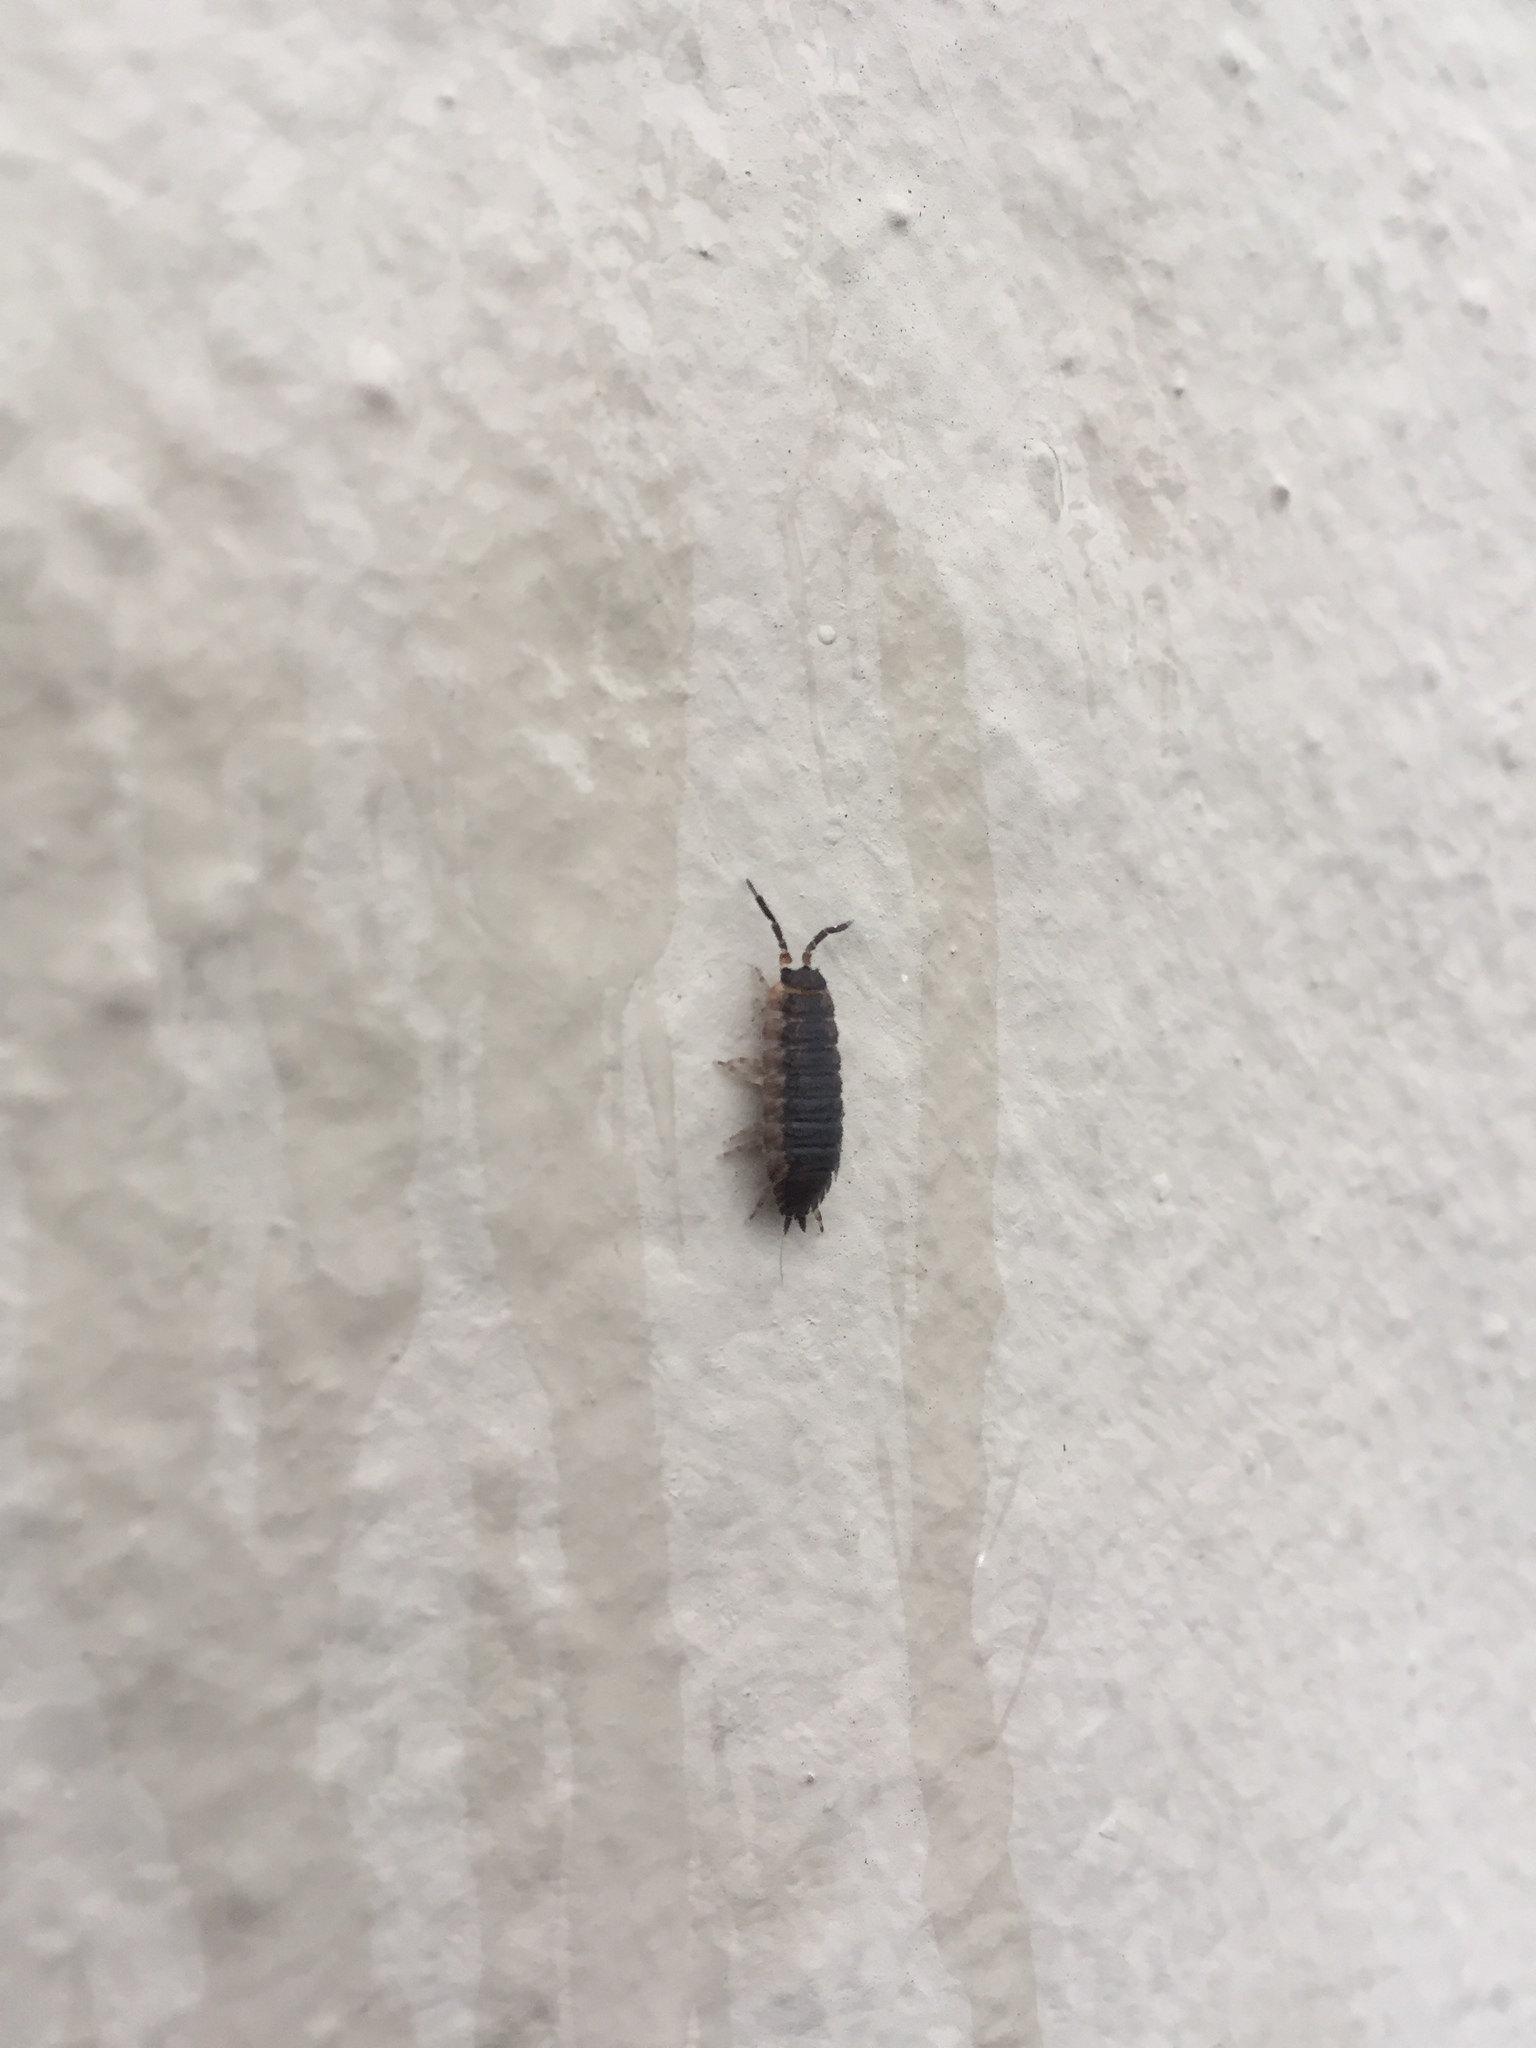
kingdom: Animalia
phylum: Arthropoda
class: Malacostraca
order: Isopoda
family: Porcellionidae
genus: Porcellio
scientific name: Porcellio scaber
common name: Common rough woodlouse
